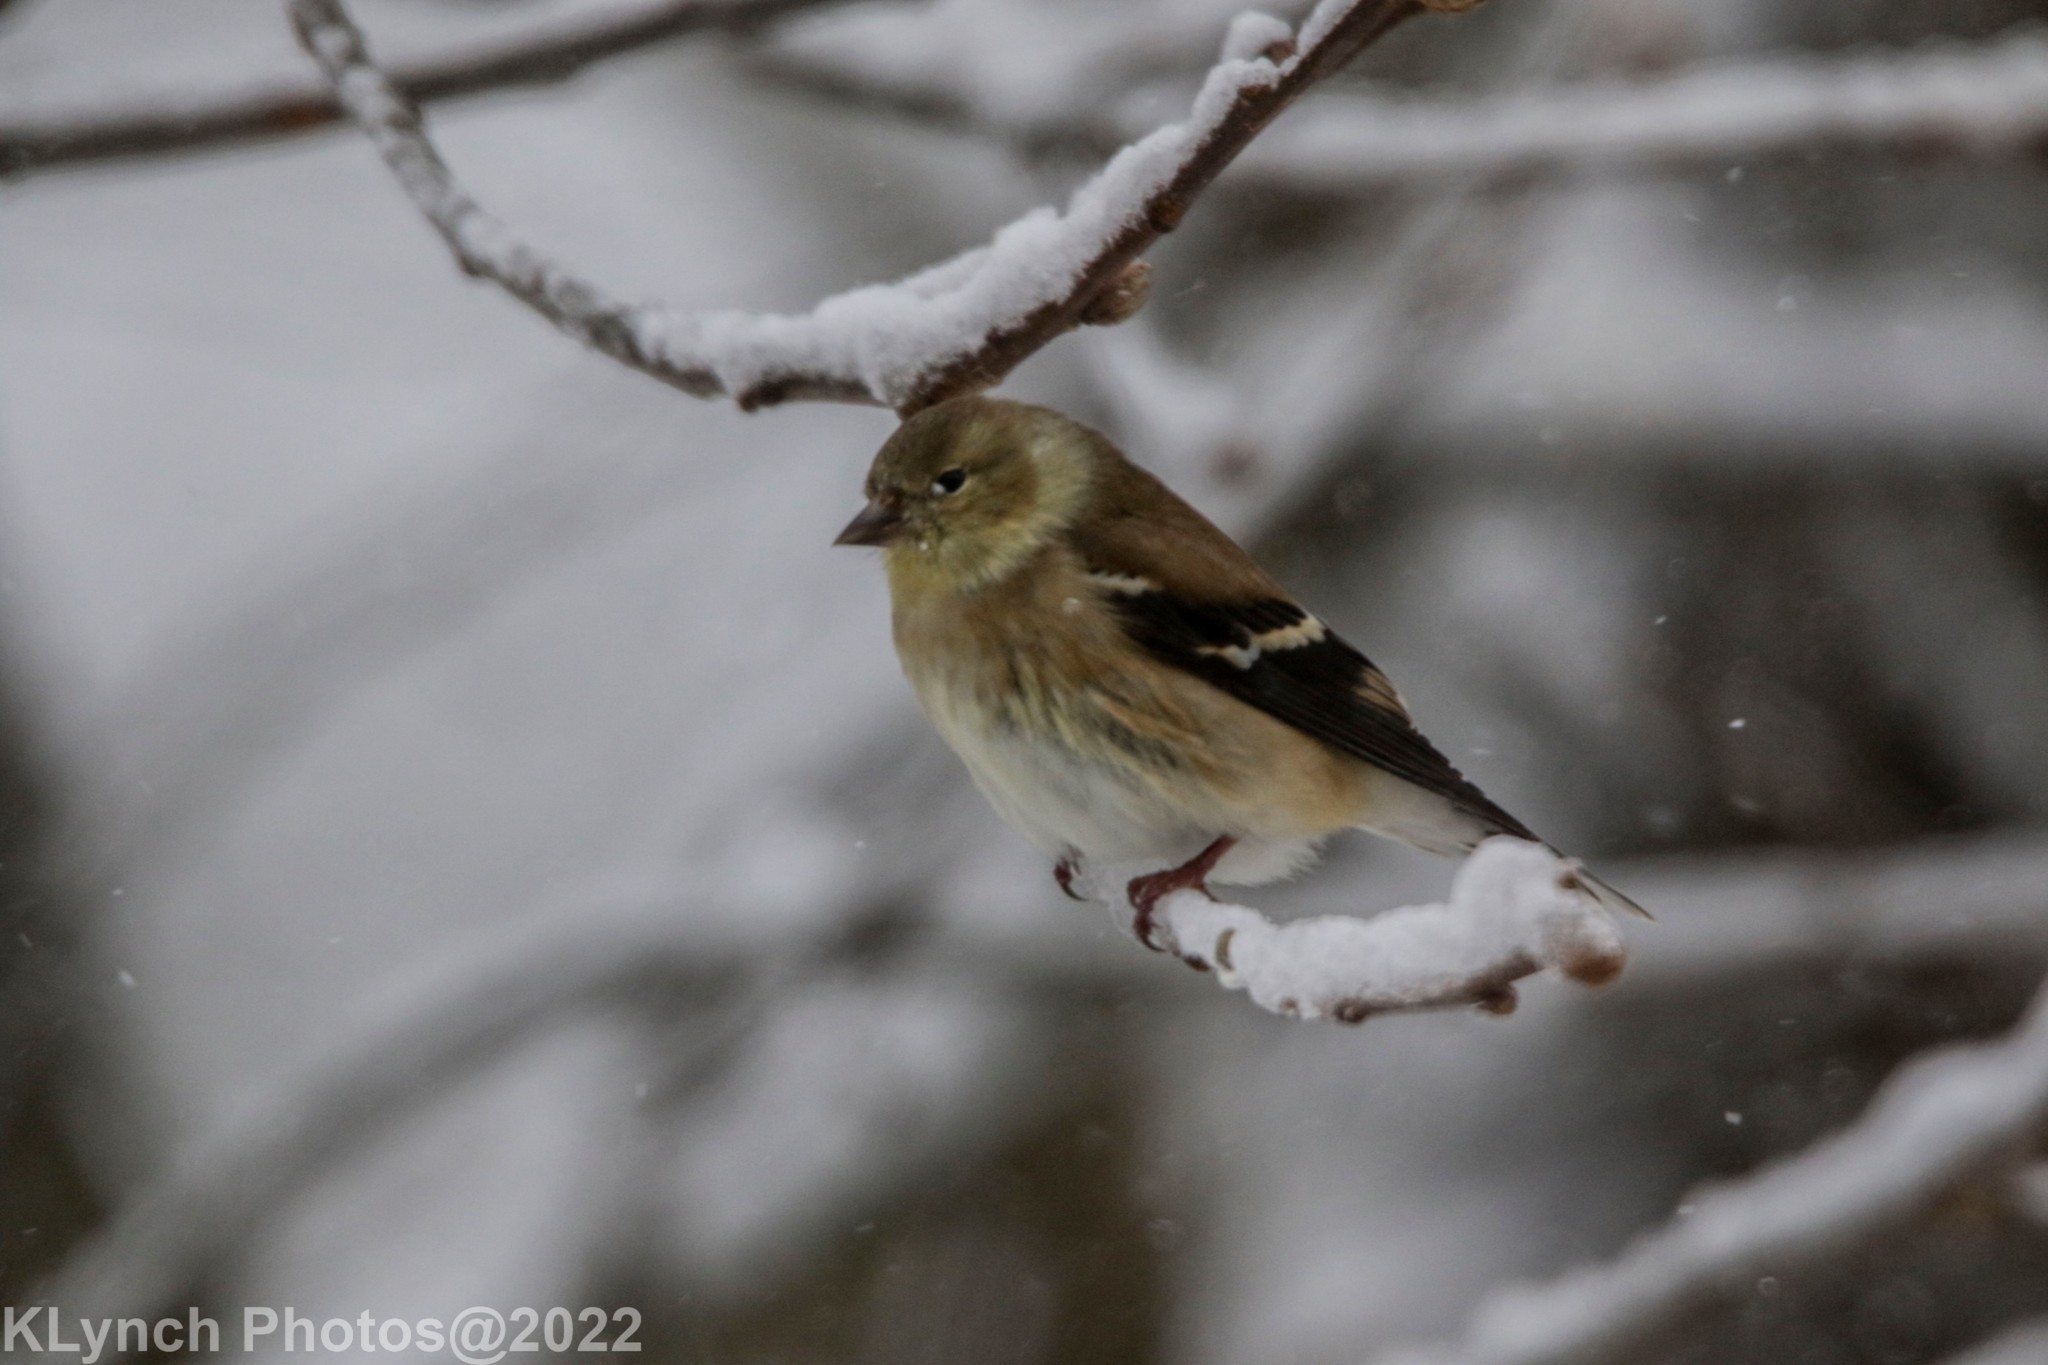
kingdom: Animalia
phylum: Chordata
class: Aves
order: Passeriformes
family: Fringillidae
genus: Spinus
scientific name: Spinus tristis
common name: American goldfinch
